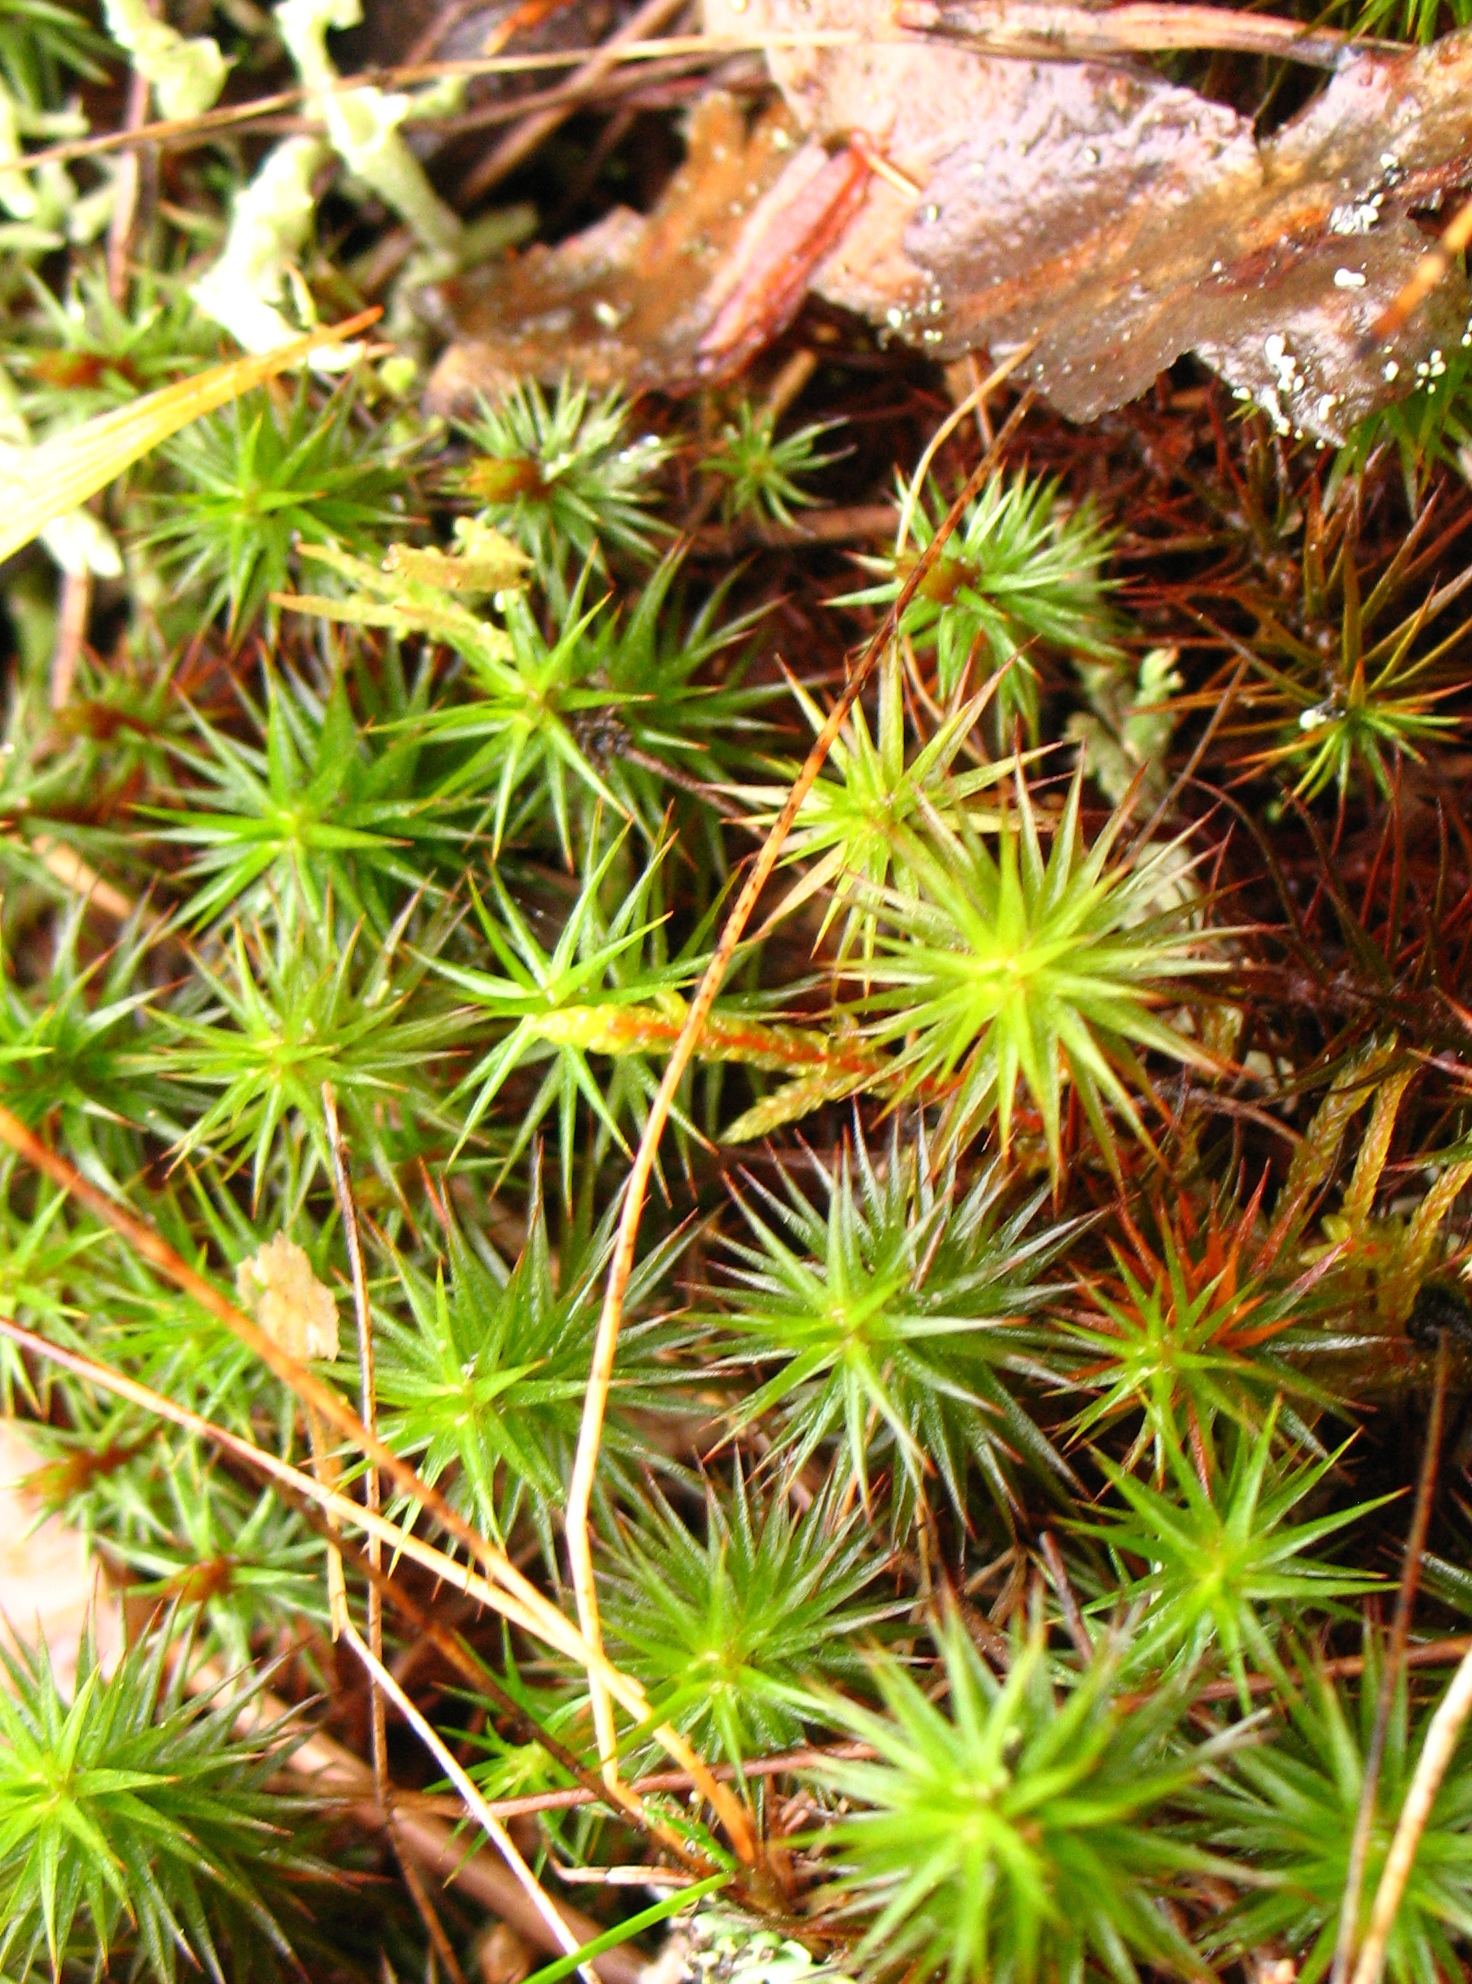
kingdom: Plantae
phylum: Bryophyta
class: Polytrichopsida
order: Polytrichales
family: Polytrichaceae
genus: Polytrichum
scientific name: Polytrichum commune
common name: Common haircap
